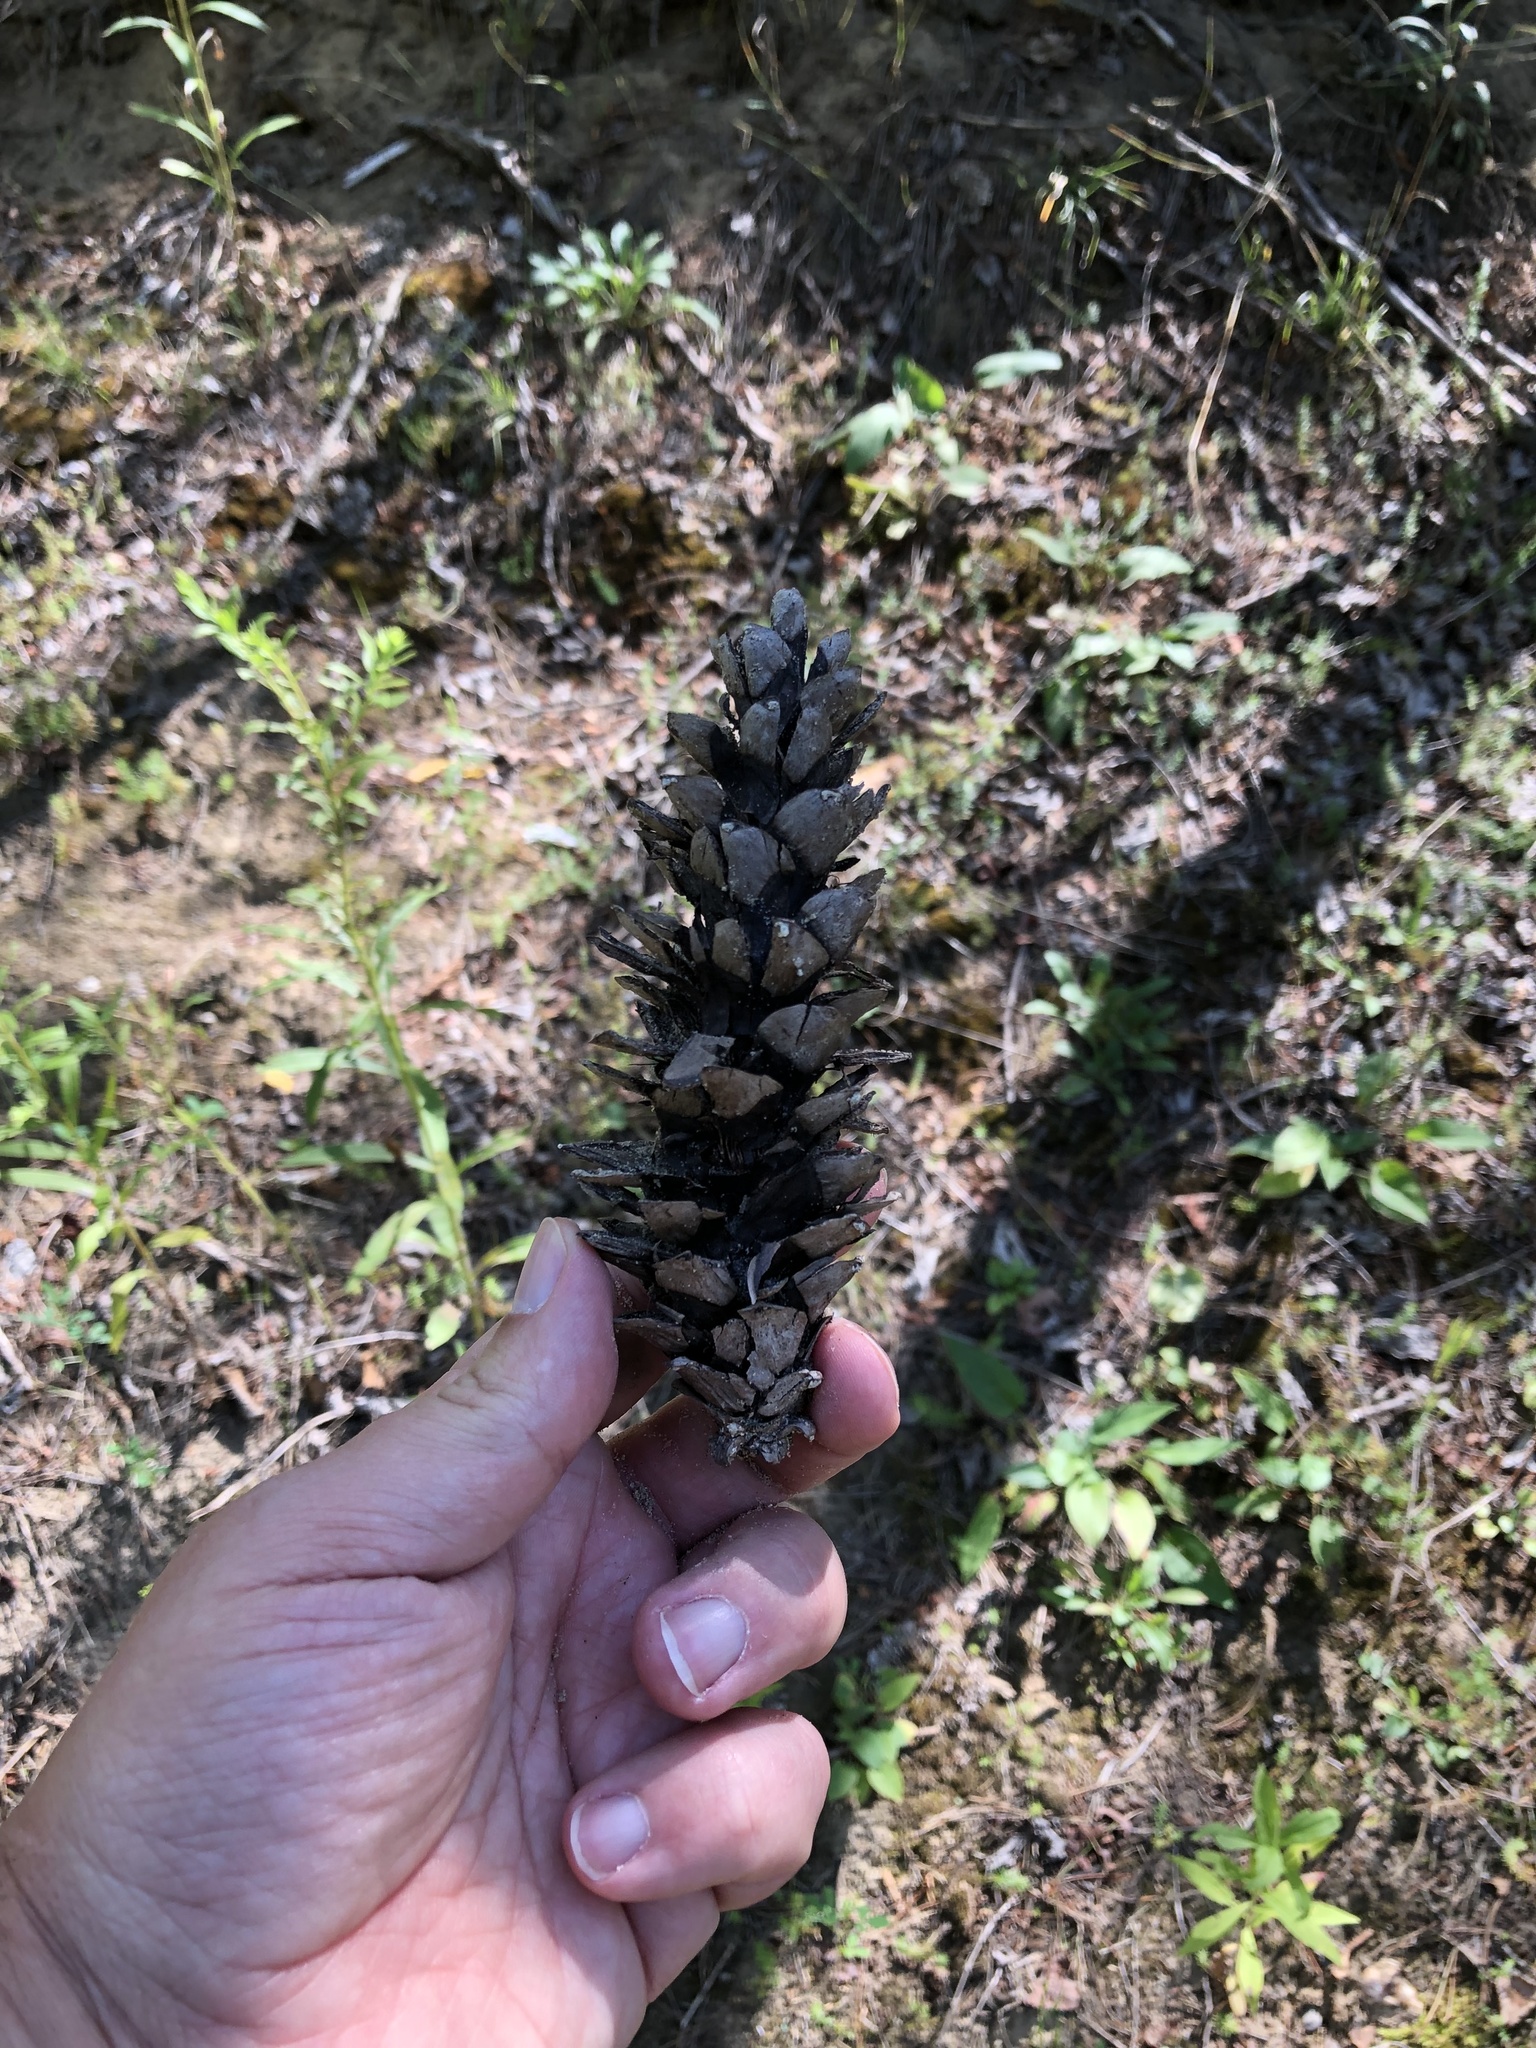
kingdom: Plantae
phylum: Tracheophyta
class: Pinopsida
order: Pinales
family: Pinaceae
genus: Pinus
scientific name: Pinus strobus
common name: Weymouth pine
